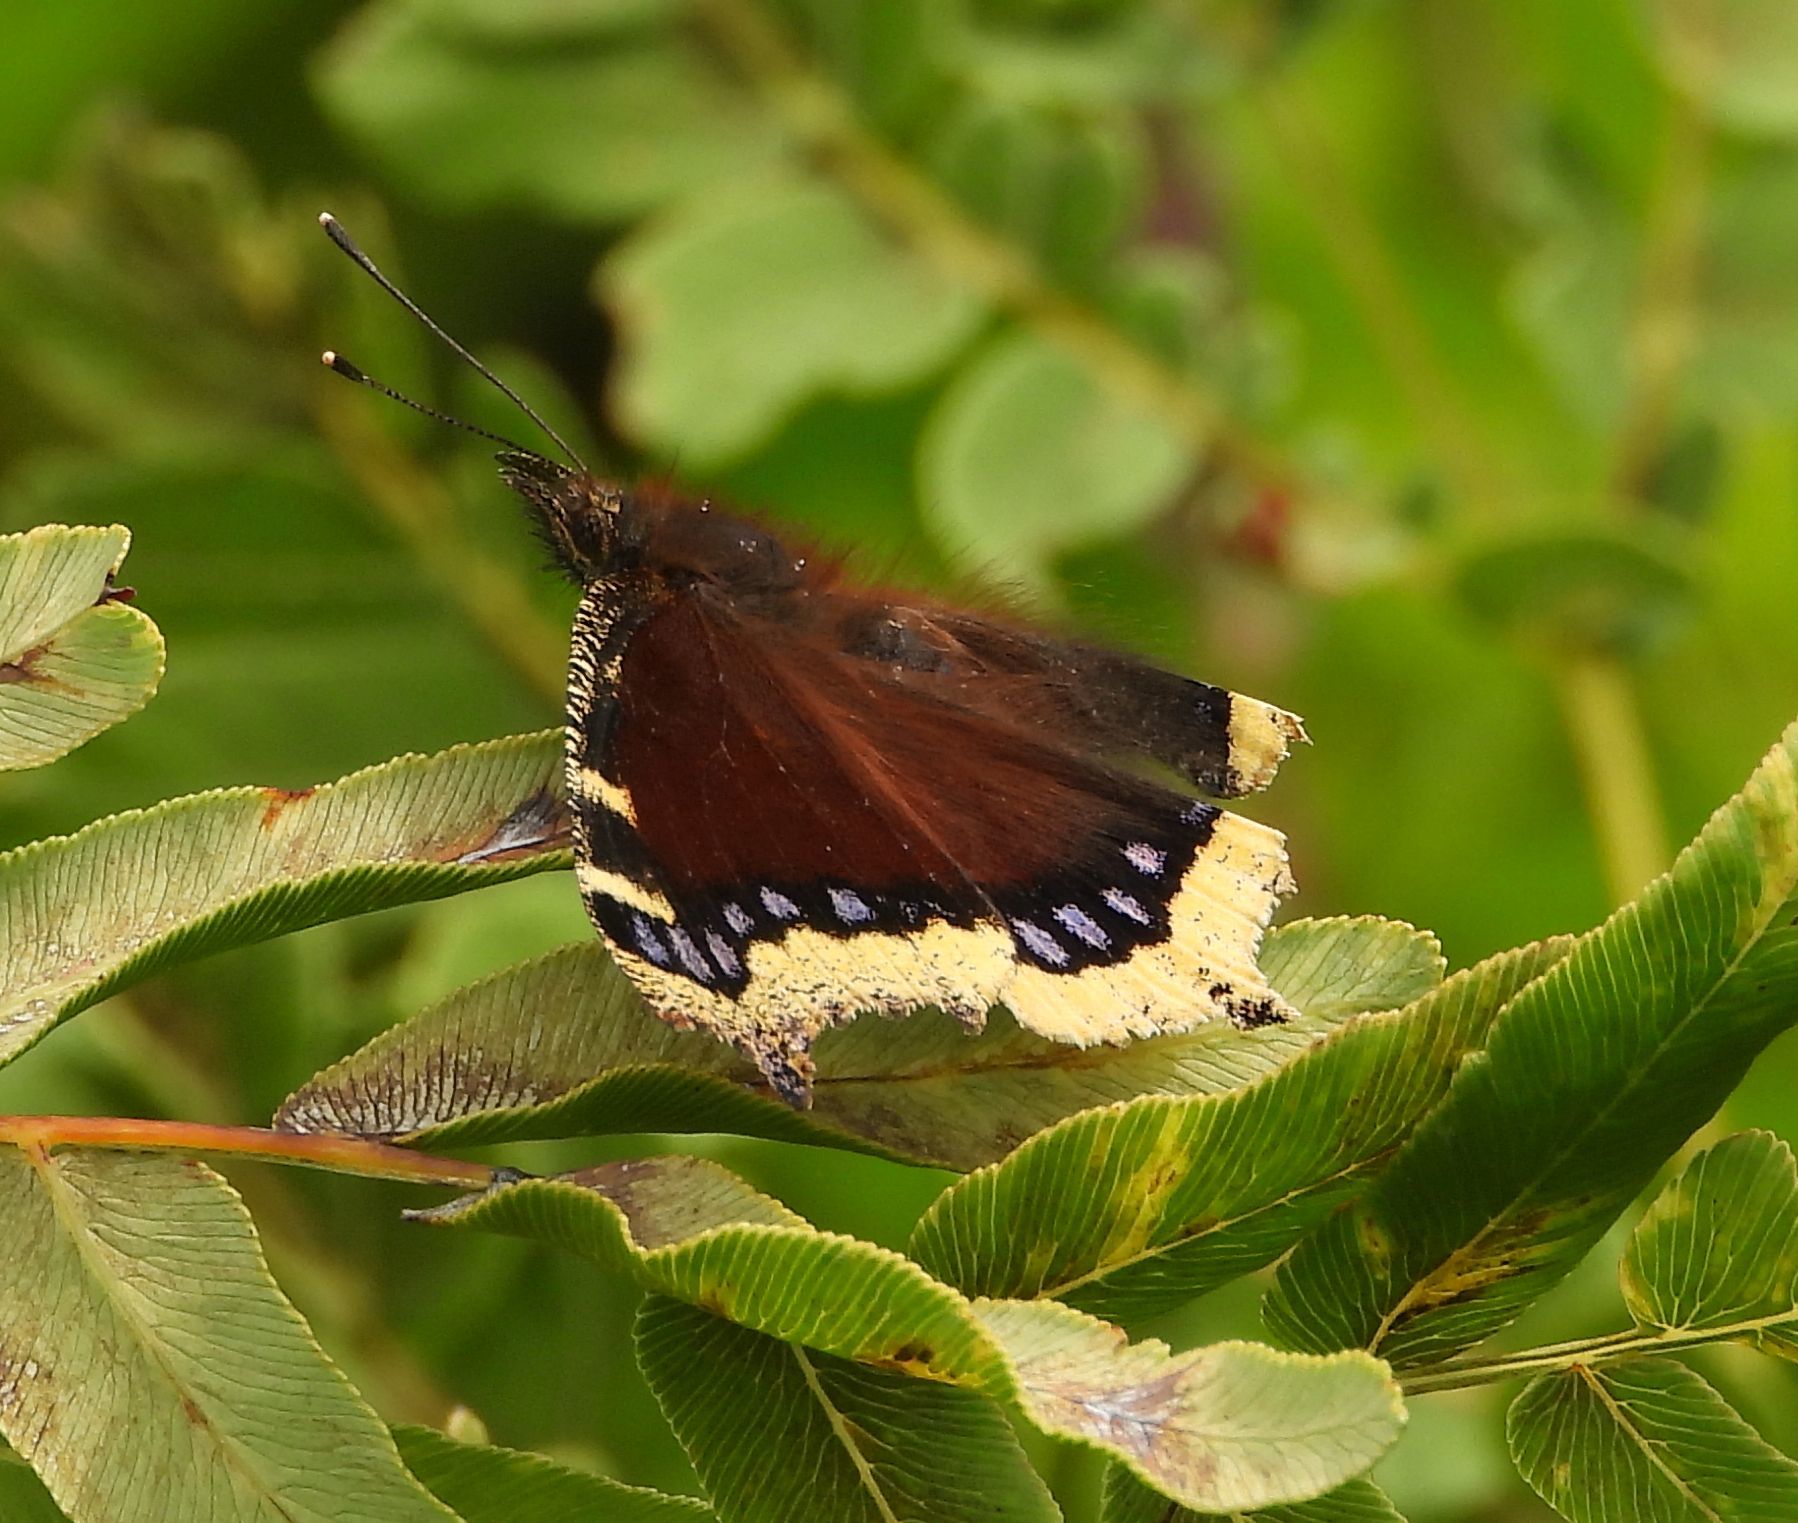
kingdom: Animalia
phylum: Arthropoda
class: Insecta
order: Lepidoptera
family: Nymphalidae
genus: Nymphalis
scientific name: Nymphalis antiopa
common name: Camberwell beauty
